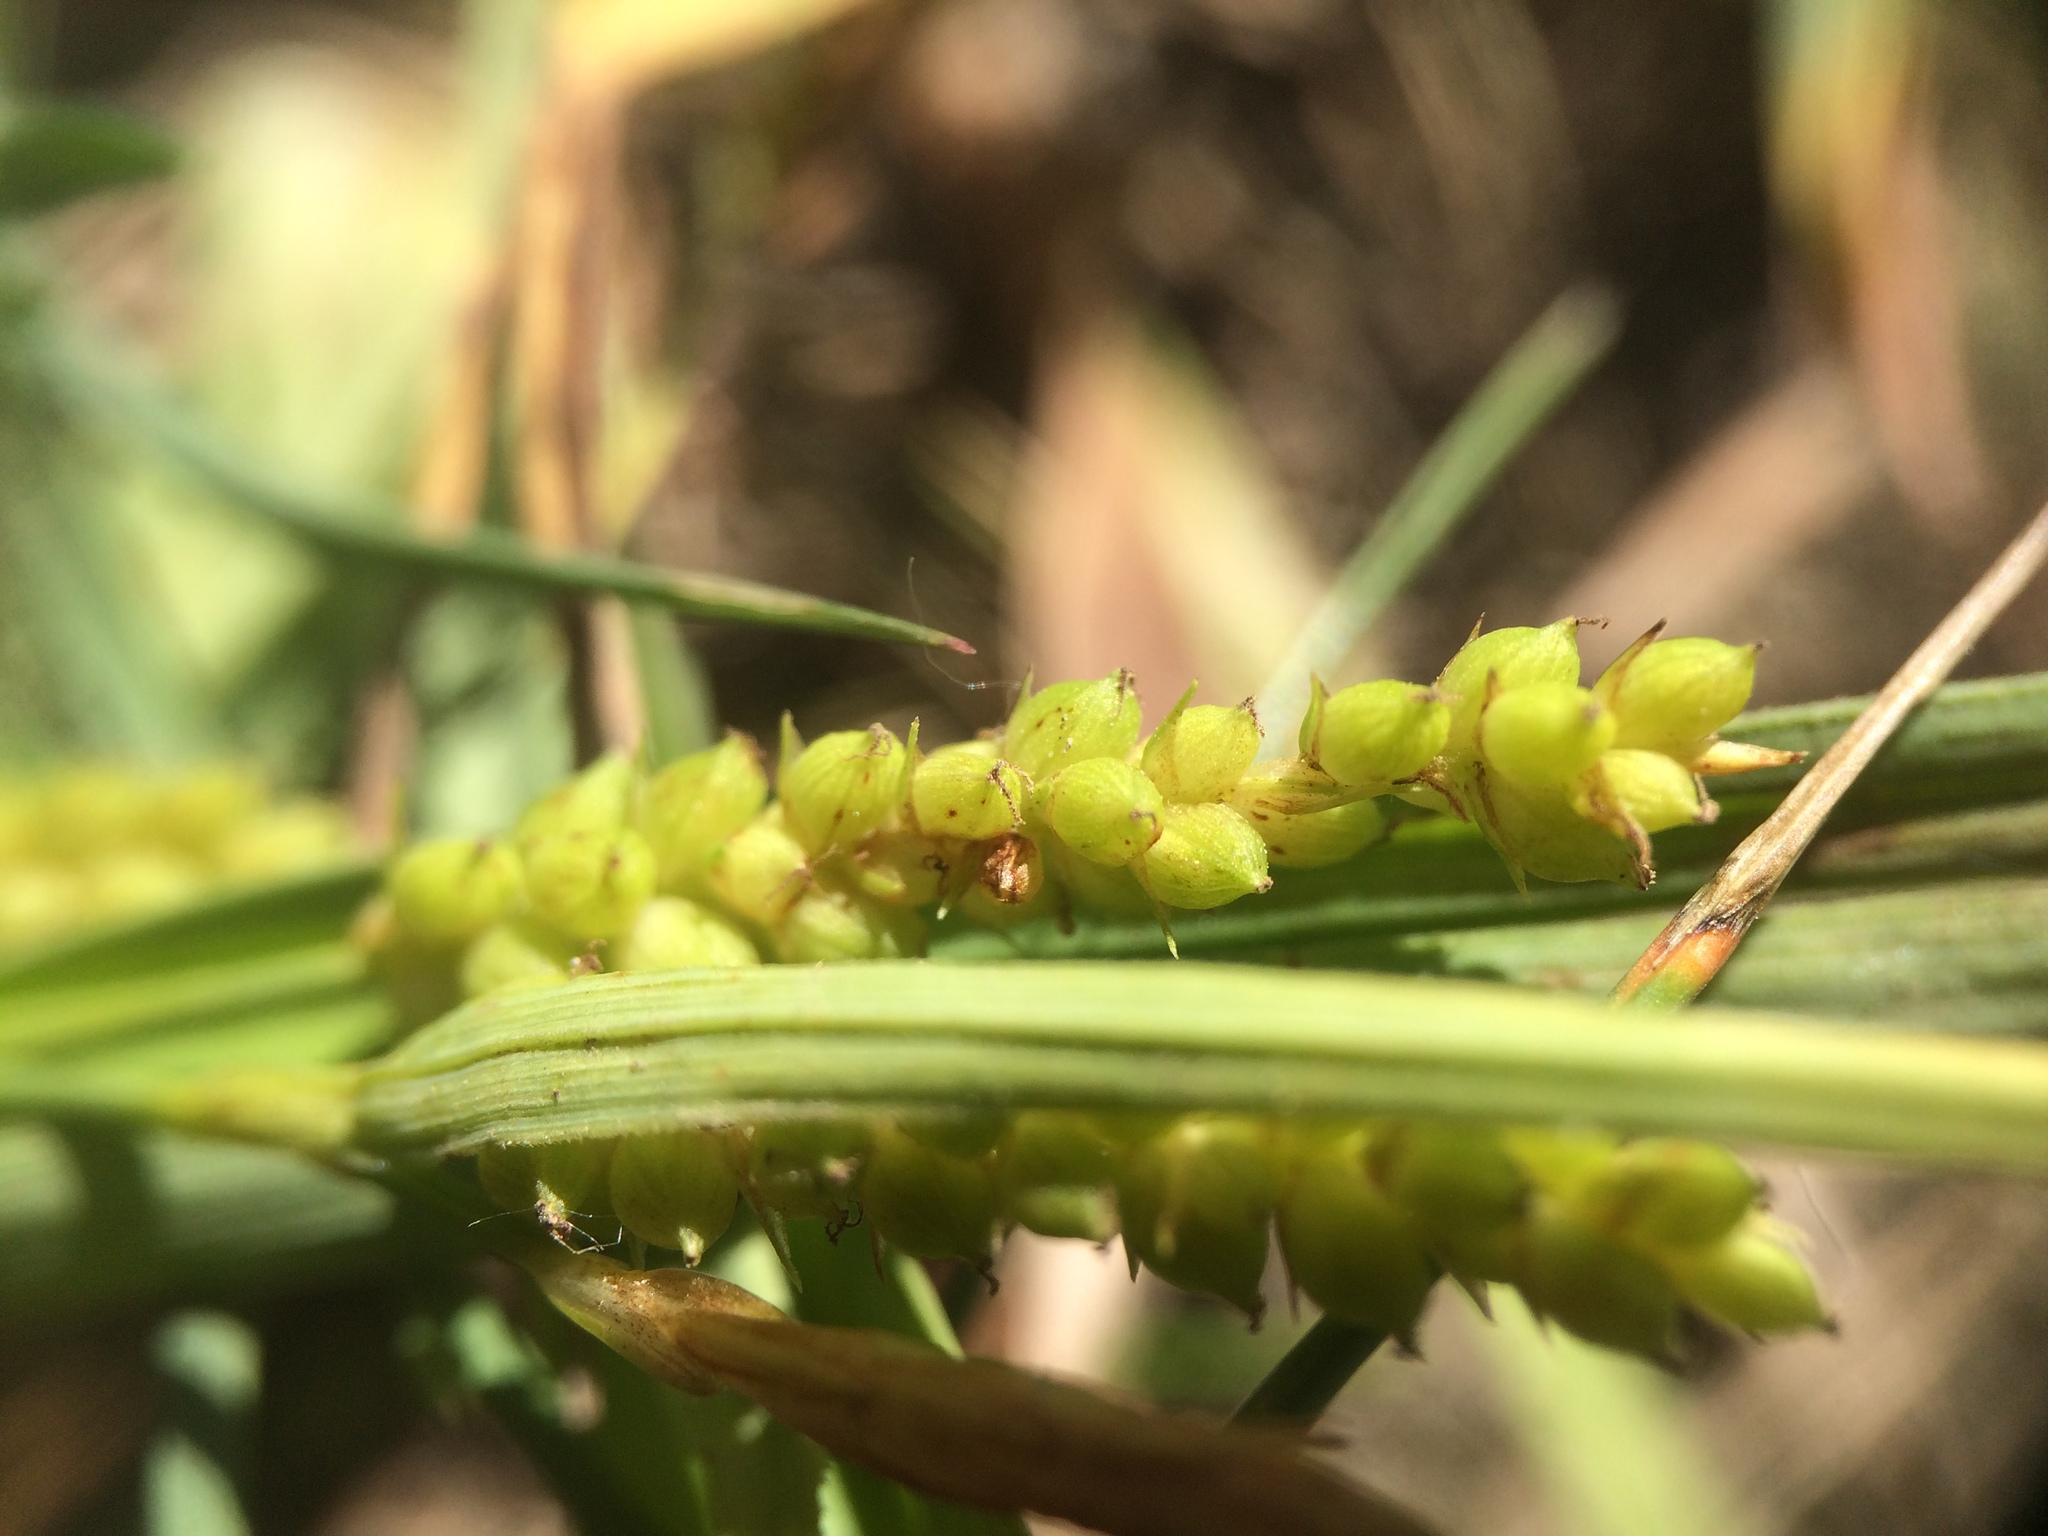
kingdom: Plantae
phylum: Tracheophyta
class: Liliopsida
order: Poales
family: Cyperaceae
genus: Carex
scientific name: Carex granularis
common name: Granular sedge
